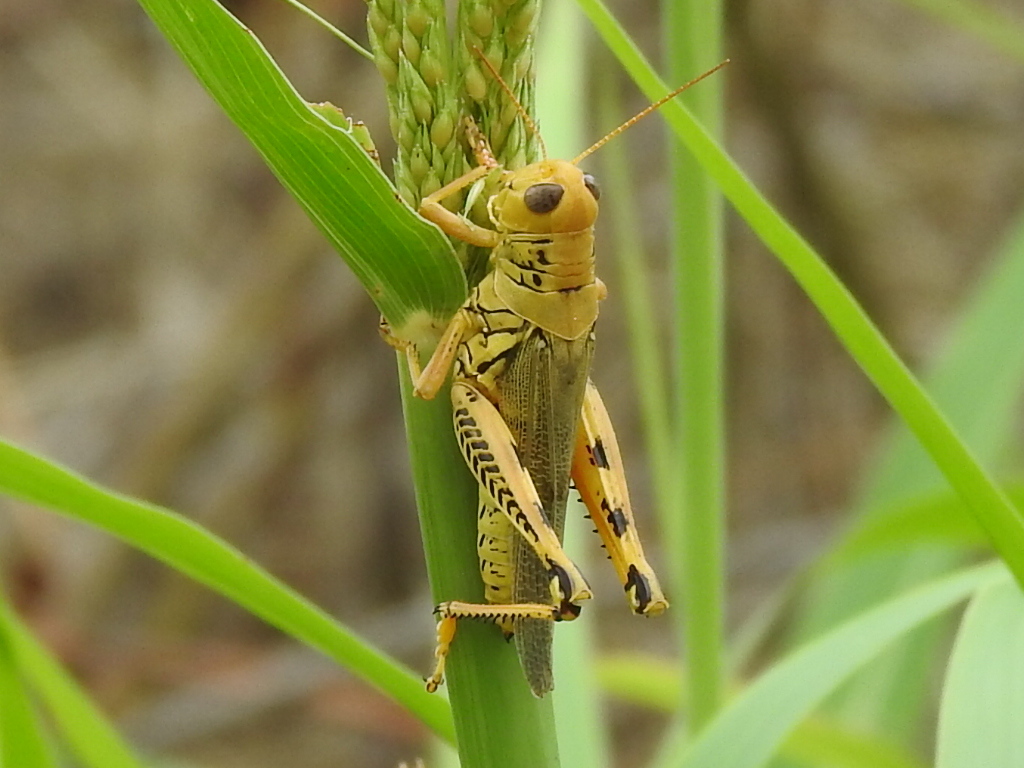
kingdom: Animalia
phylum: Arthropoda
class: Insecta
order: Orthoptera
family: Acrididae
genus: Melanoplus
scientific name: Melanoplus differentialis
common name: Differential grasshopper
